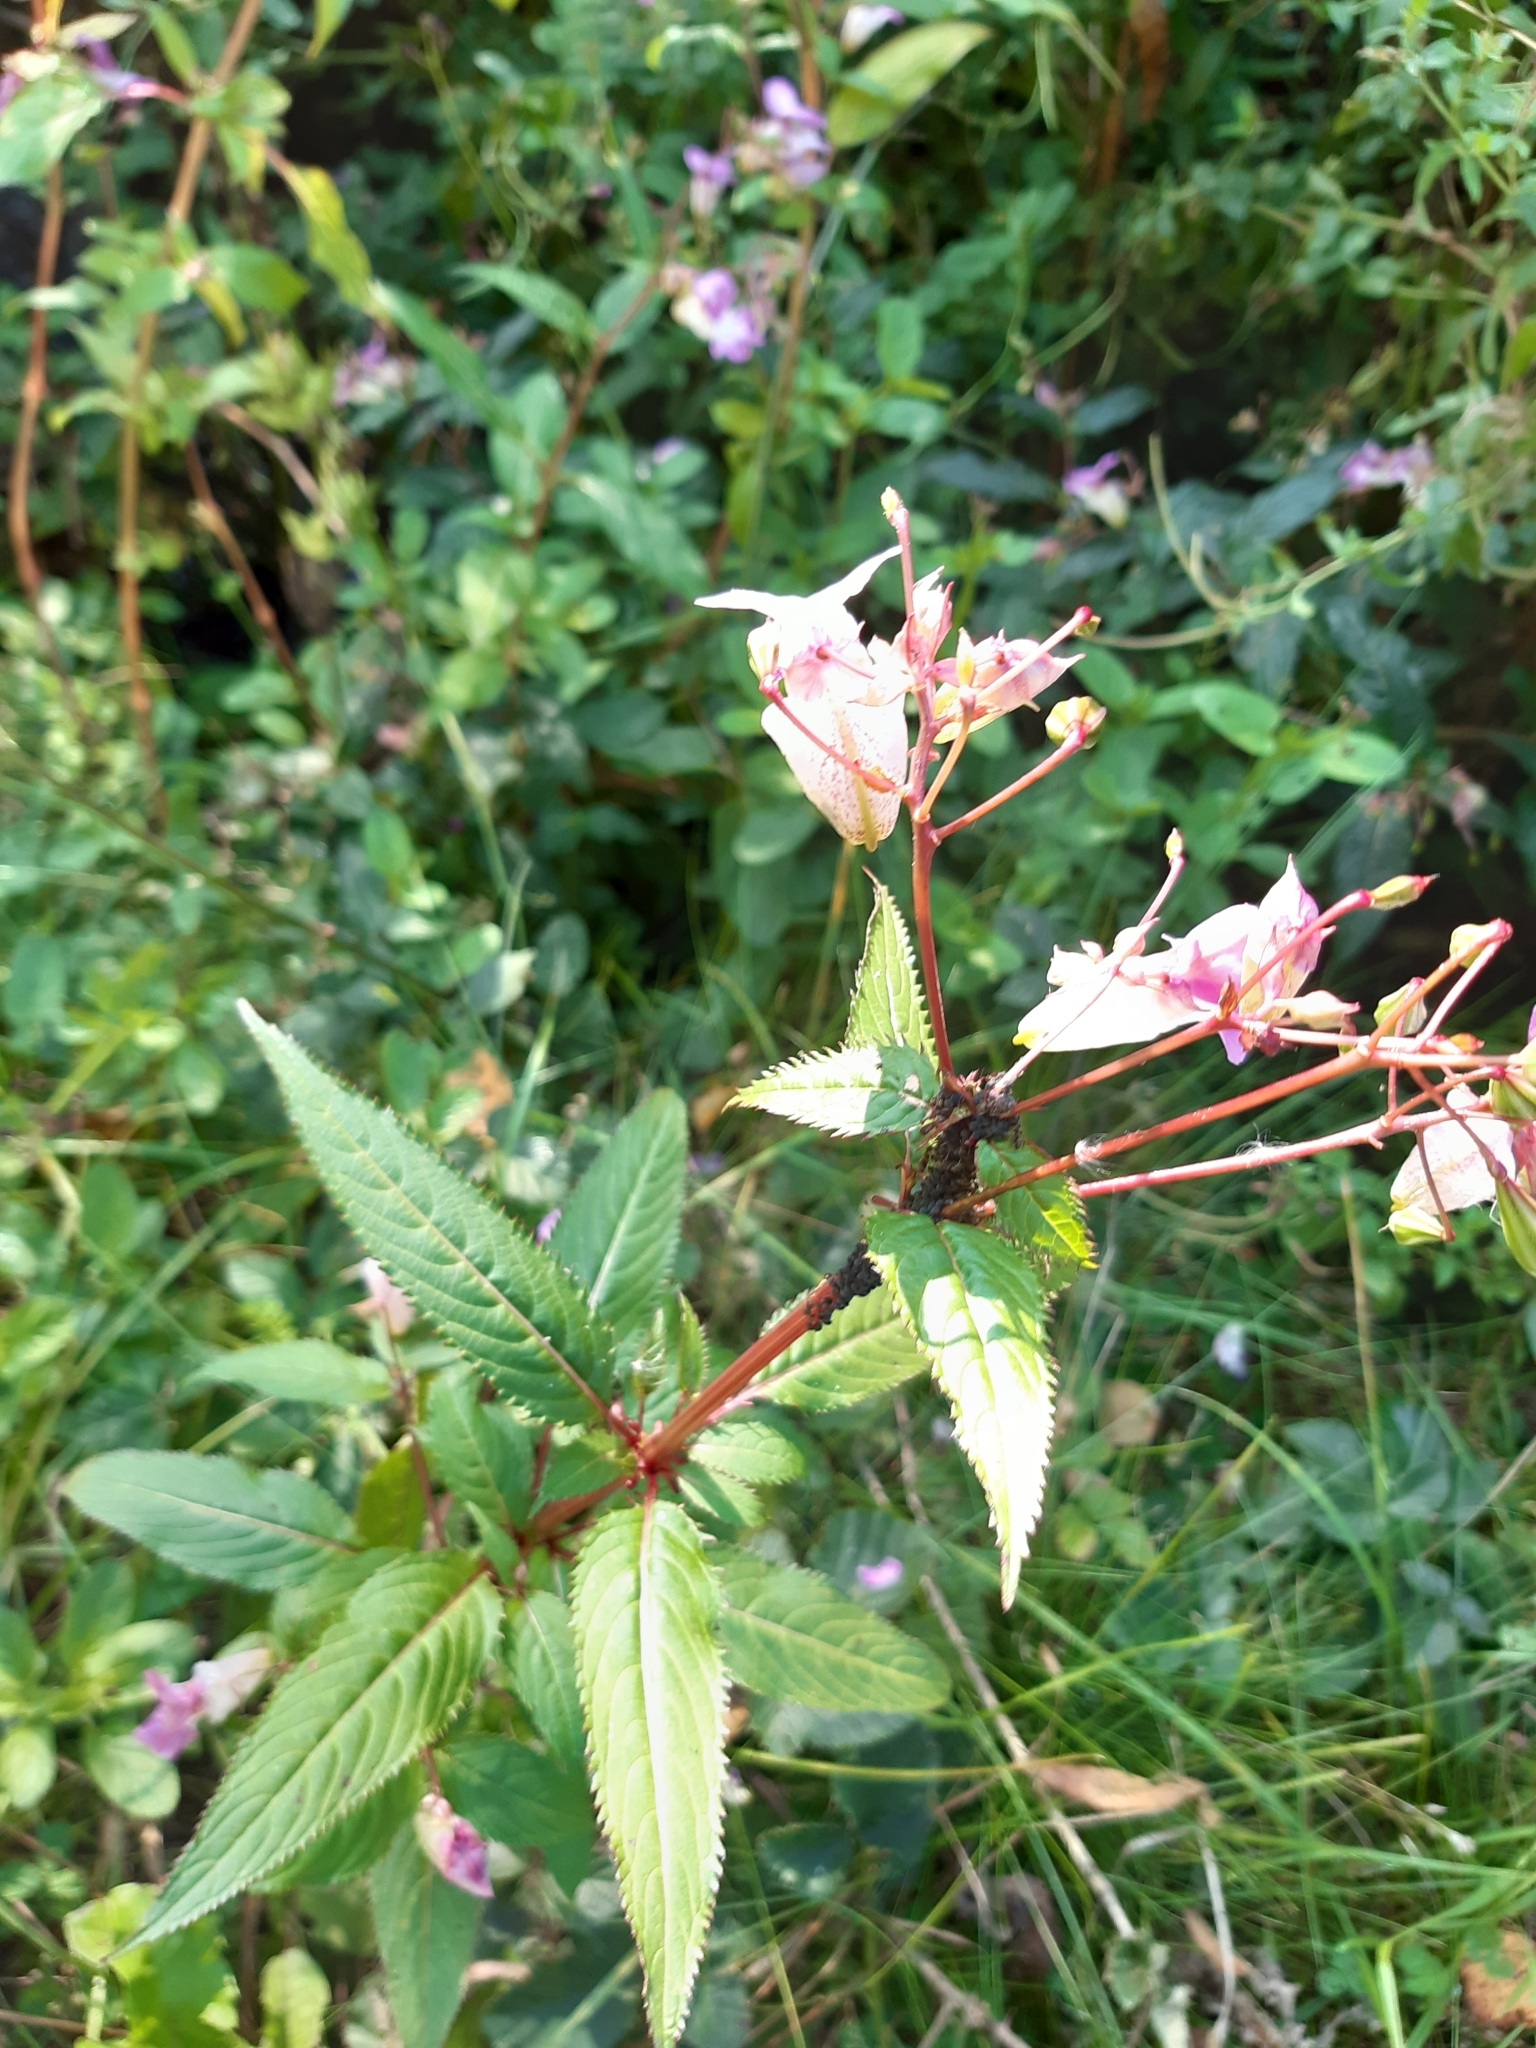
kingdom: Plantae
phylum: Tracheophyta
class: Magnoliopsida
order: Ericales
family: Balsaminaceae
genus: Impatiens
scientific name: Impatiens glandulifera
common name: Himalayan balsam
